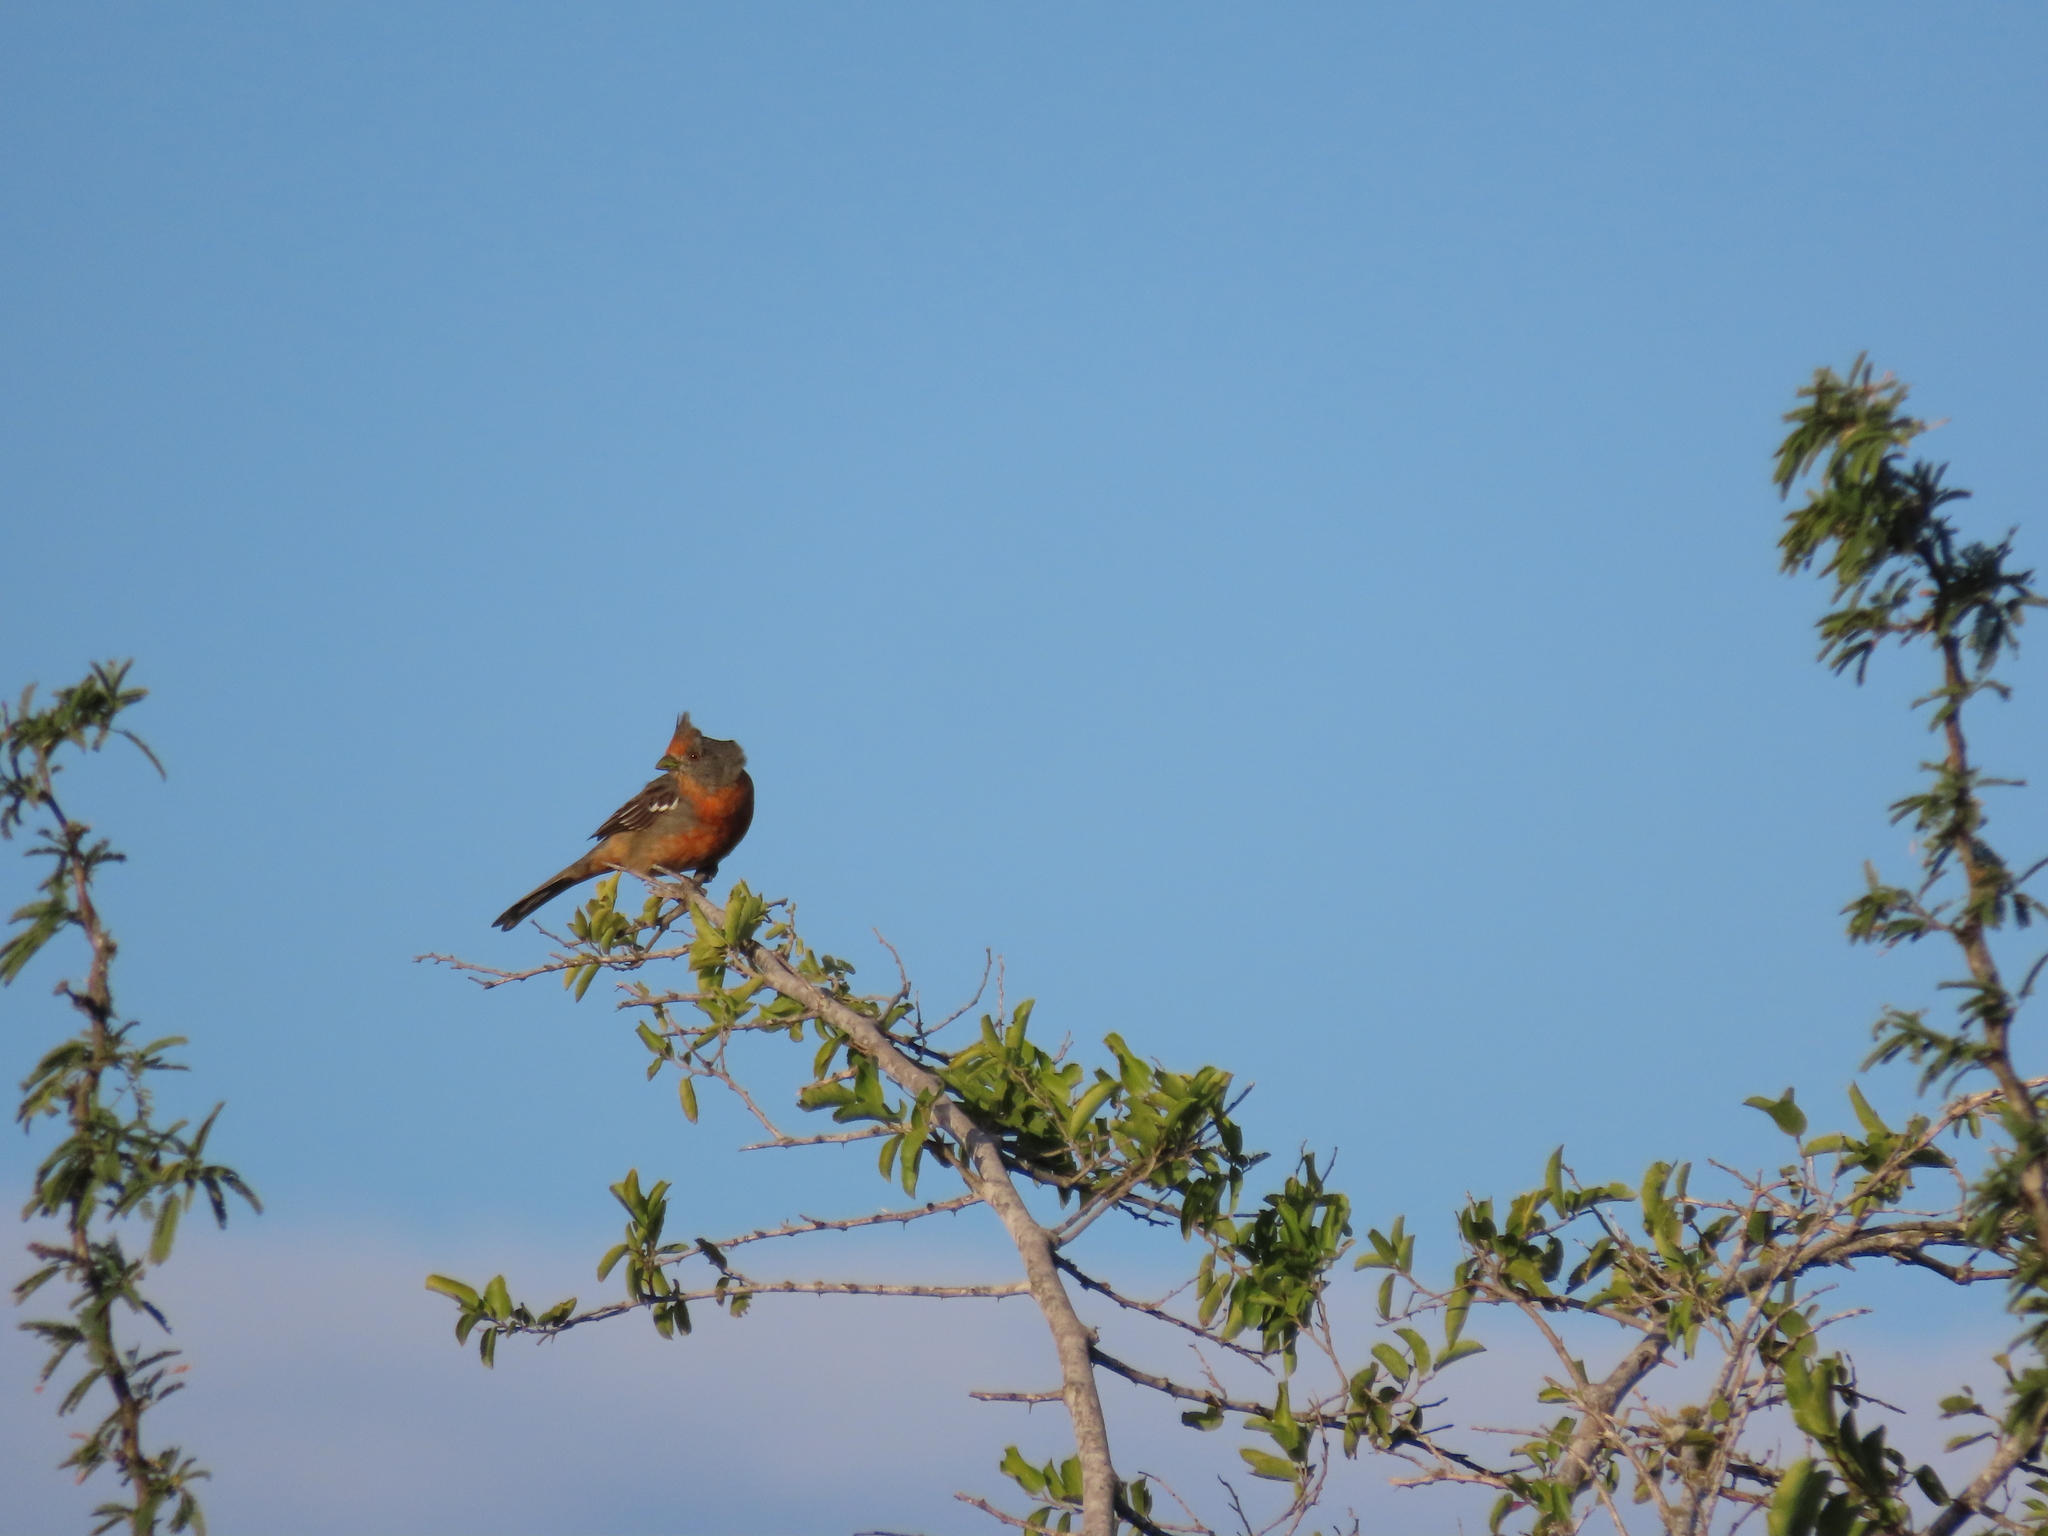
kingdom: Animalia
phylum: Chordata
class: Aves
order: Passeriformes
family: Cotingidae
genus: Phytotoma
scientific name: Phytotoma rutila
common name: White-tipped plantcutter
